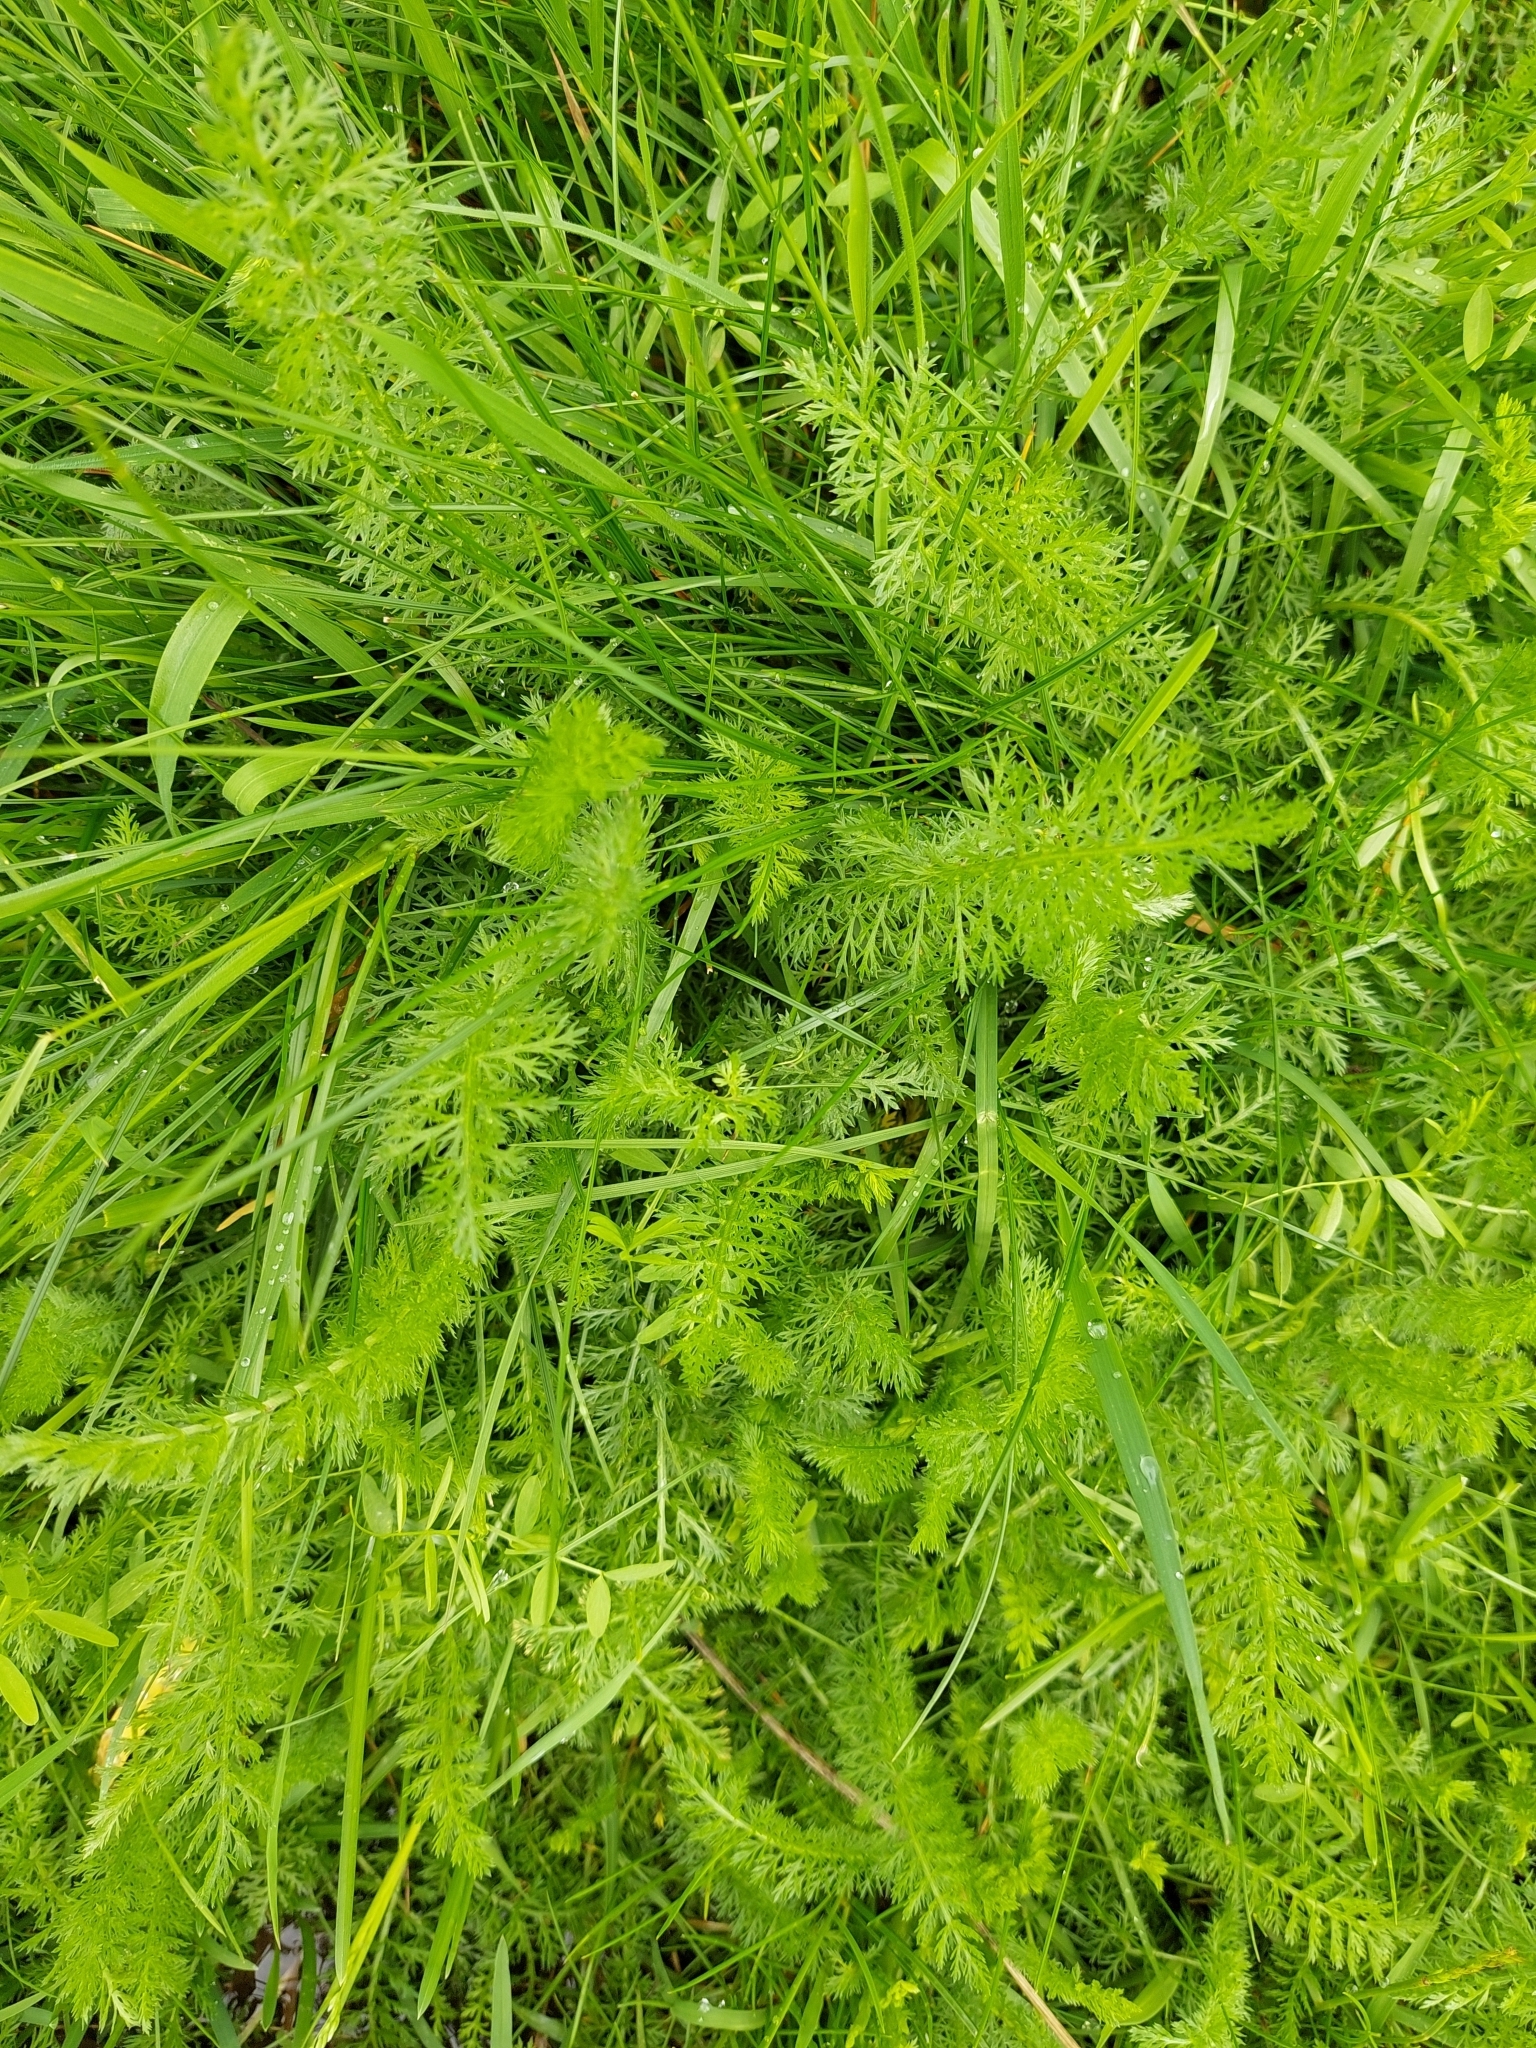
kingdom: Plantae
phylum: Tracheophyta
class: Magnoliopsida
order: Asterales
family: Asteraceae
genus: Achillea
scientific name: Achillea millefolium
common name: Yarrow
